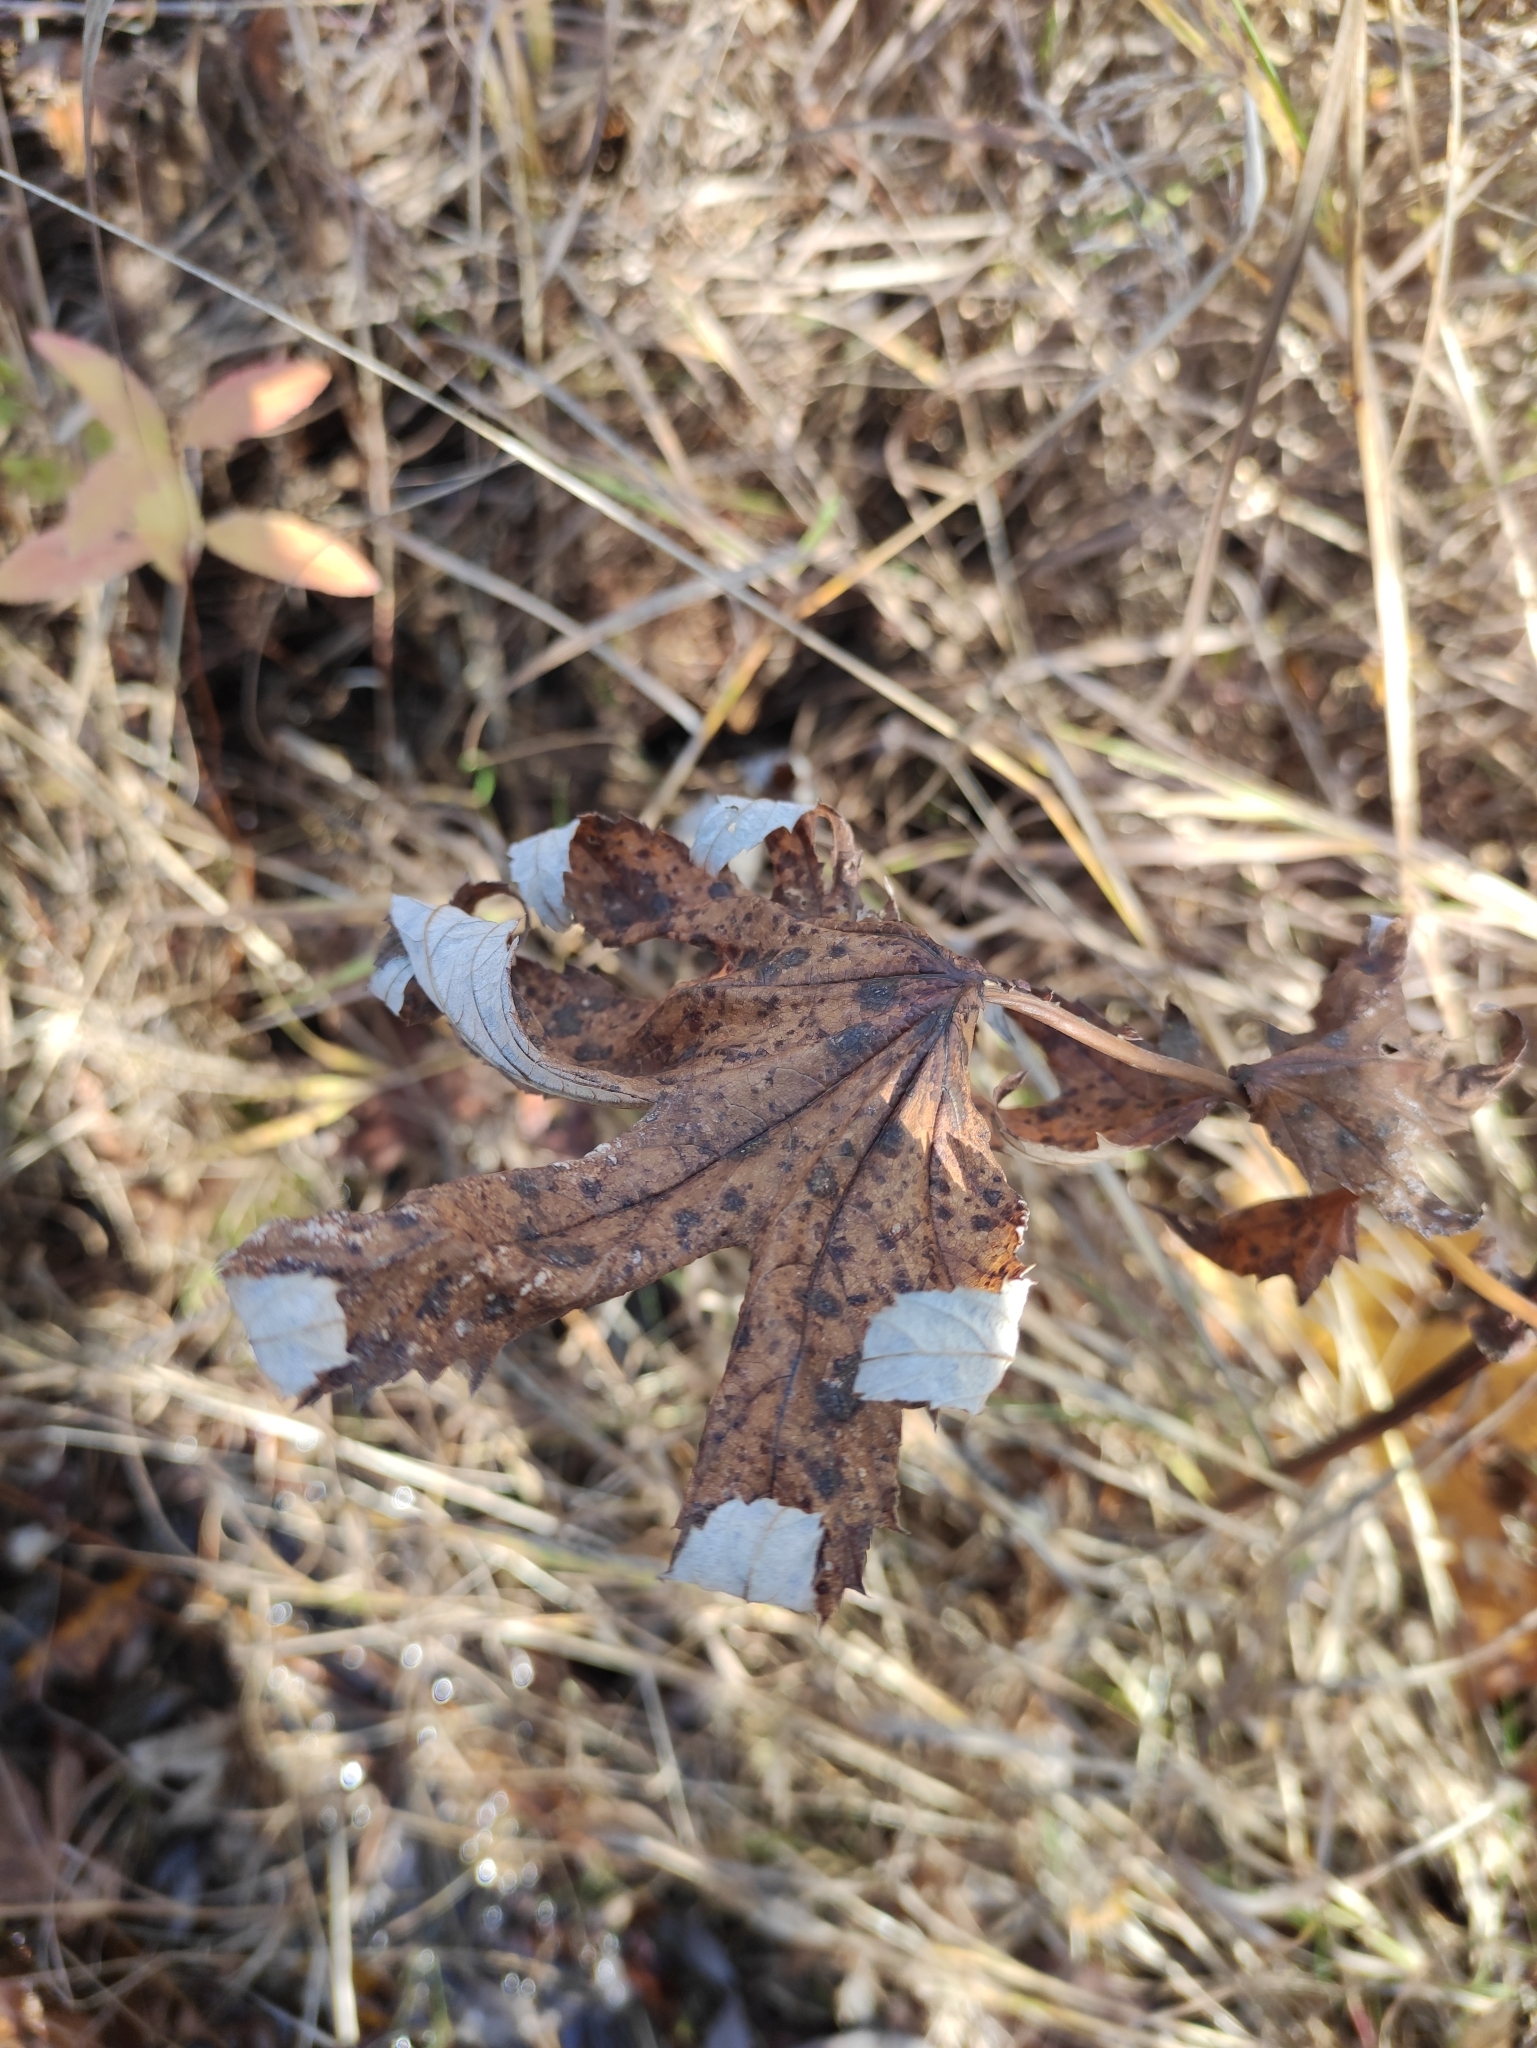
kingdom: Plantae
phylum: Tracheophyta
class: Magnoliopsida
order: Rosales
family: Rosaceae
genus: Filipendula
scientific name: Filipendula digitata
